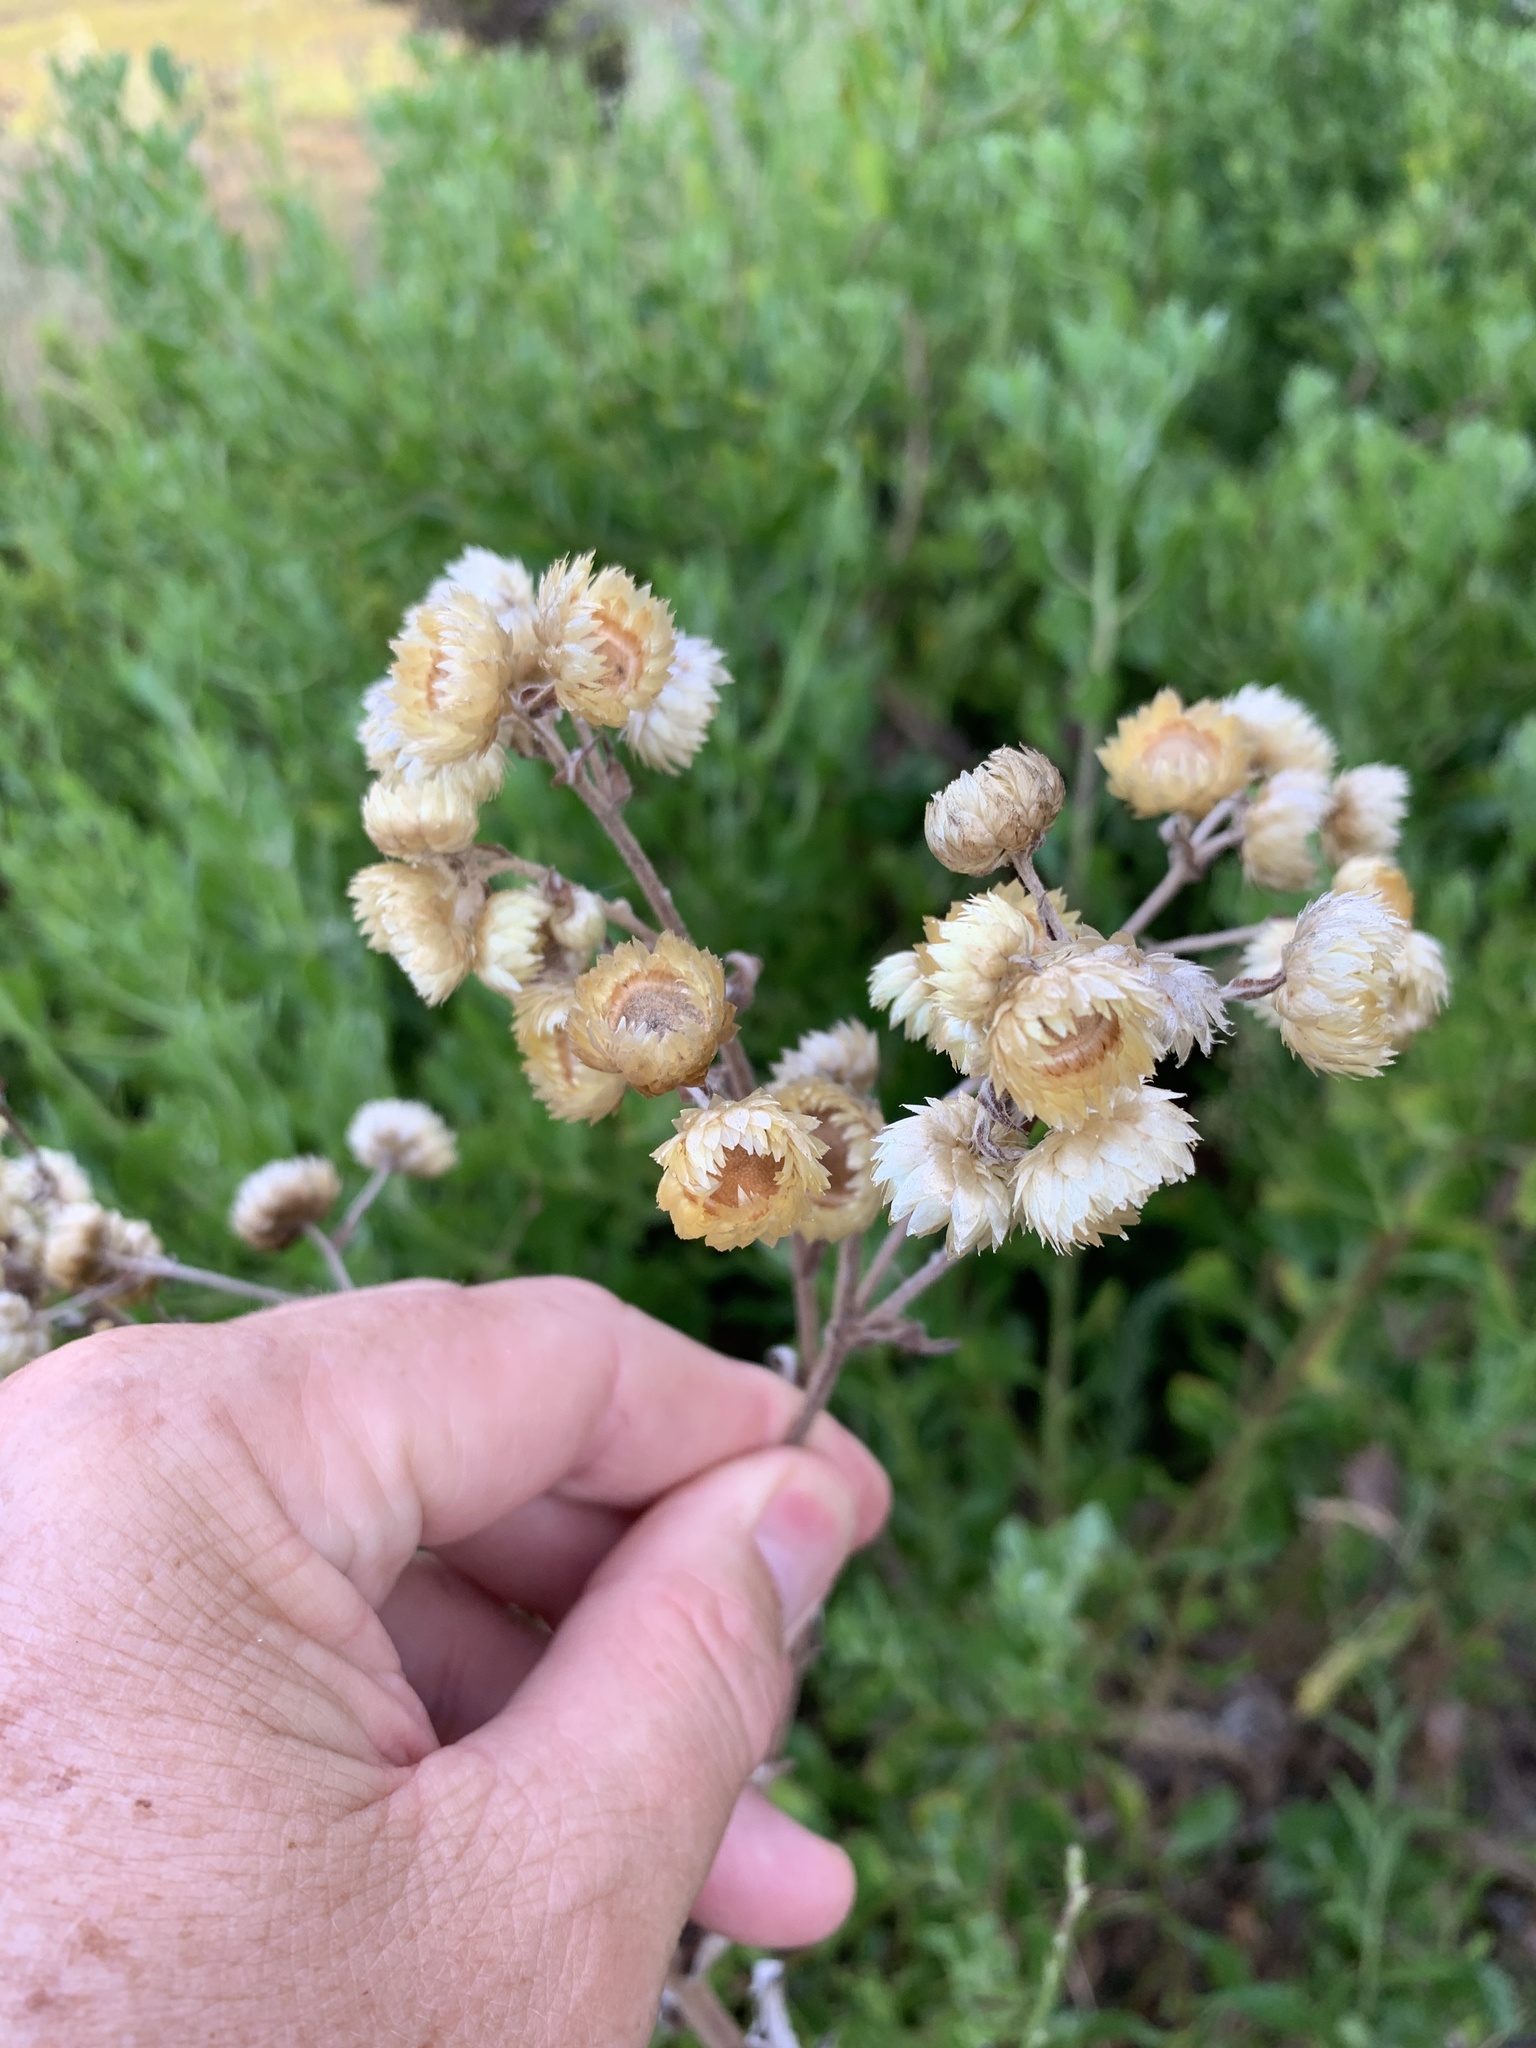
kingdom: Plantae
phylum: Tracheophyta
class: Magnoliopsida
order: Asterales
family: Asteraceae
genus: Helichrysum
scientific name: Helichrysum foetidum
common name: Stinking everlasting
